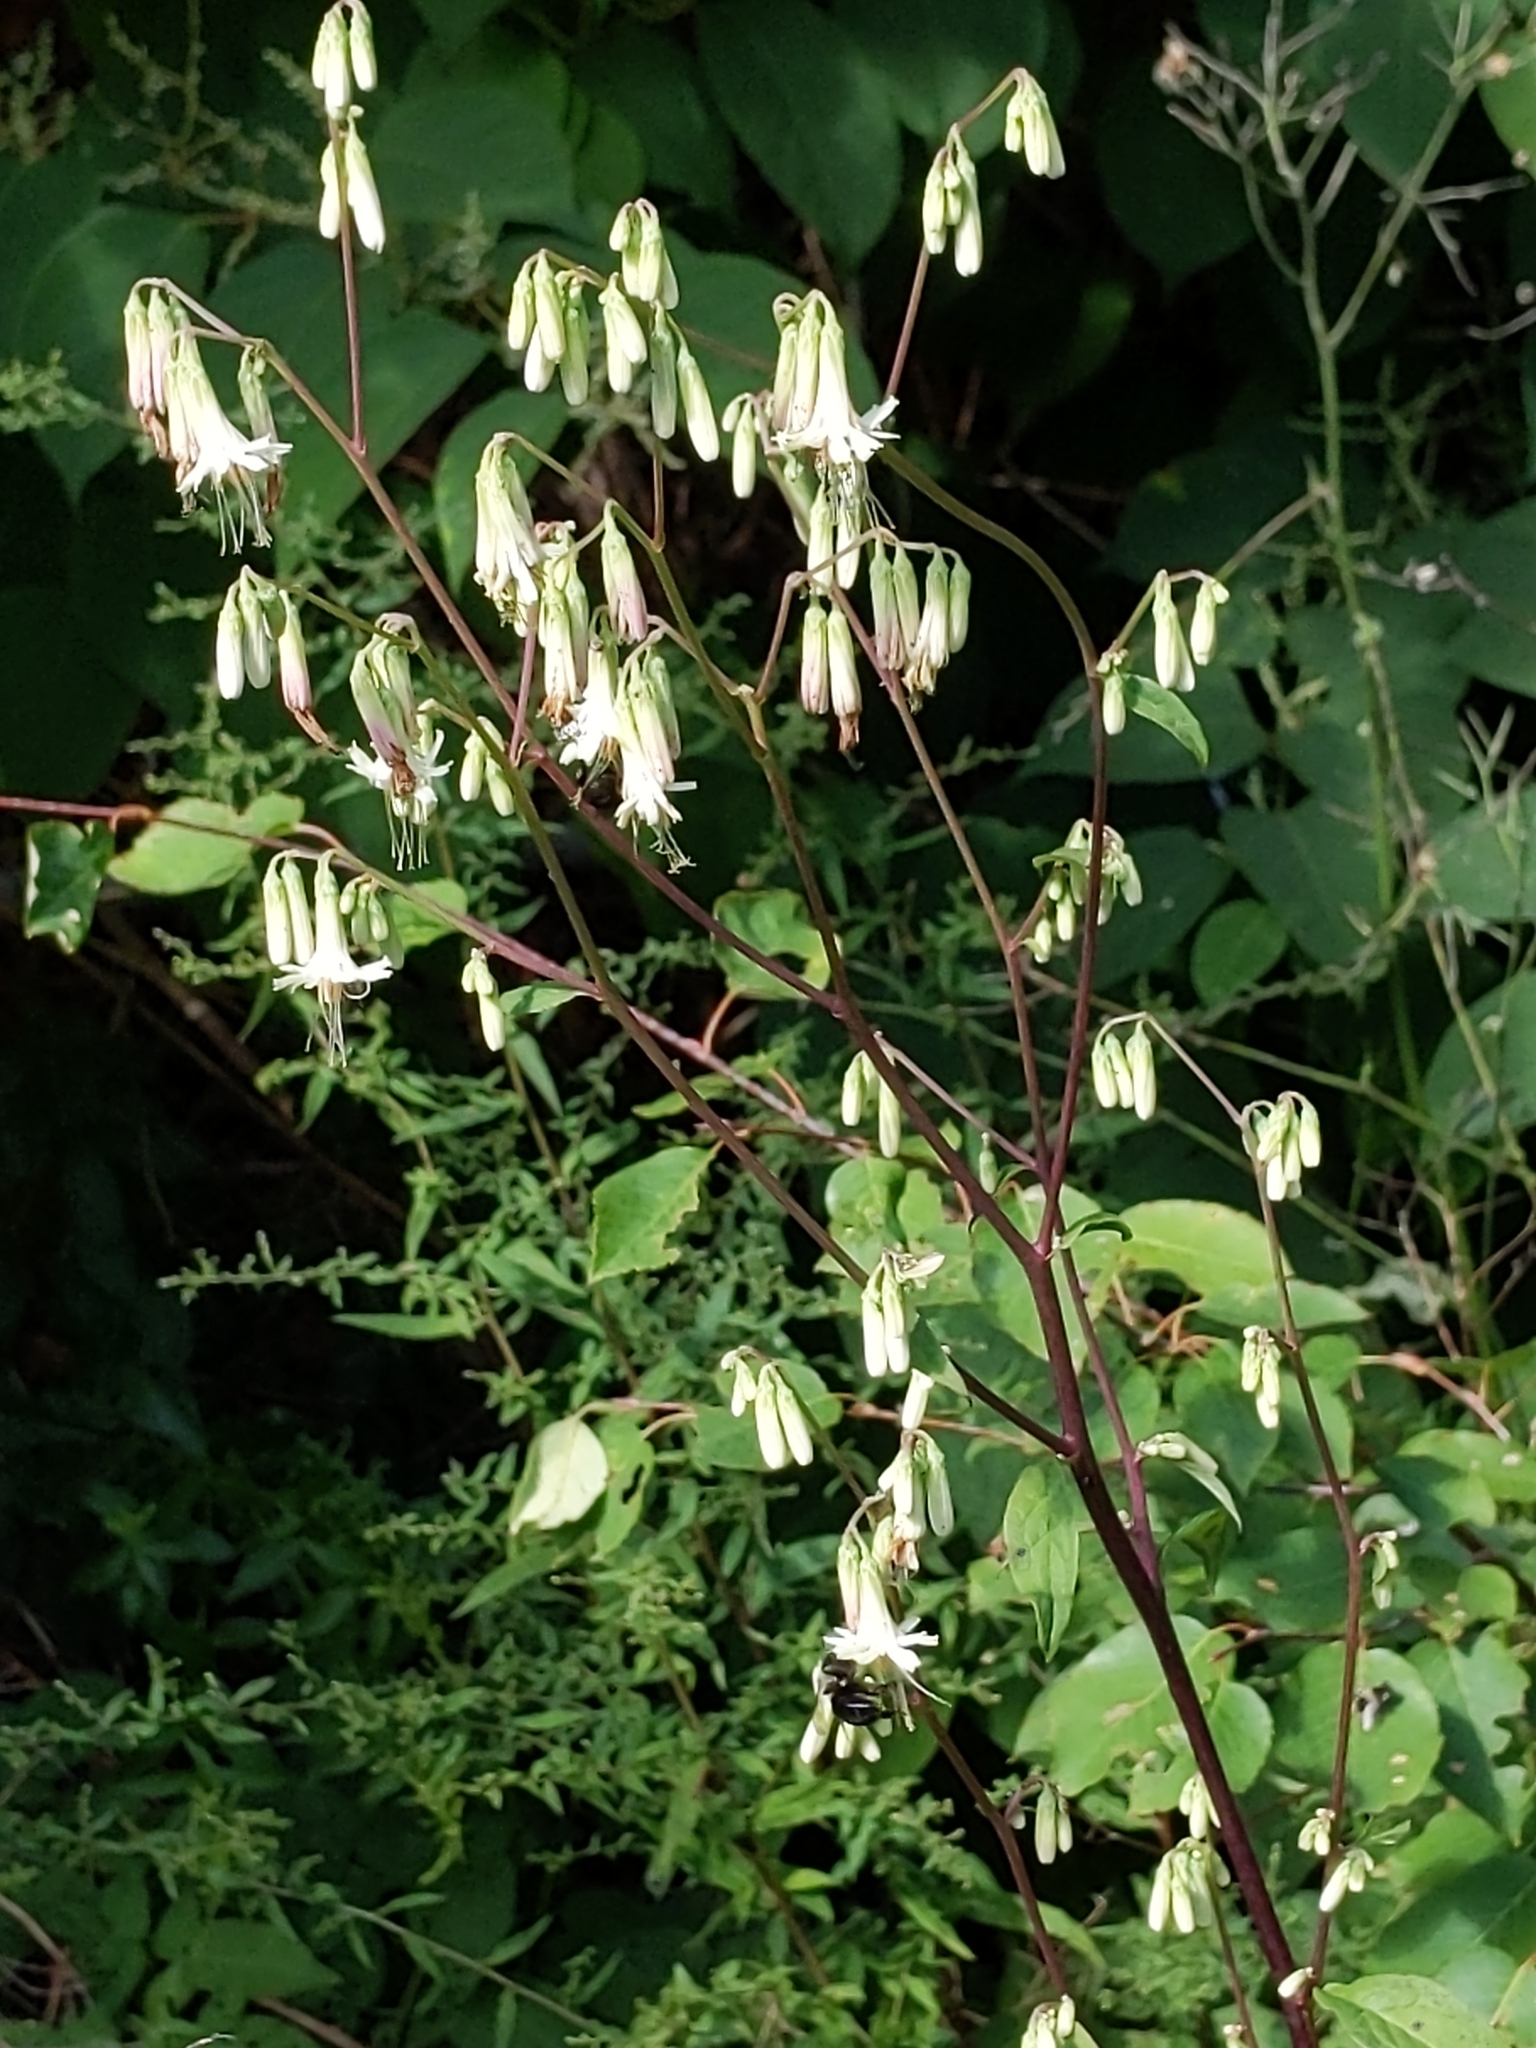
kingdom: Plantae
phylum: Tracheophyta
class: Magnoliopsida
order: Asterales
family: Asteraceae
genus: Nabalus
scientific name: Nabalus altissima
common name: Tall rattlesnakeroot
